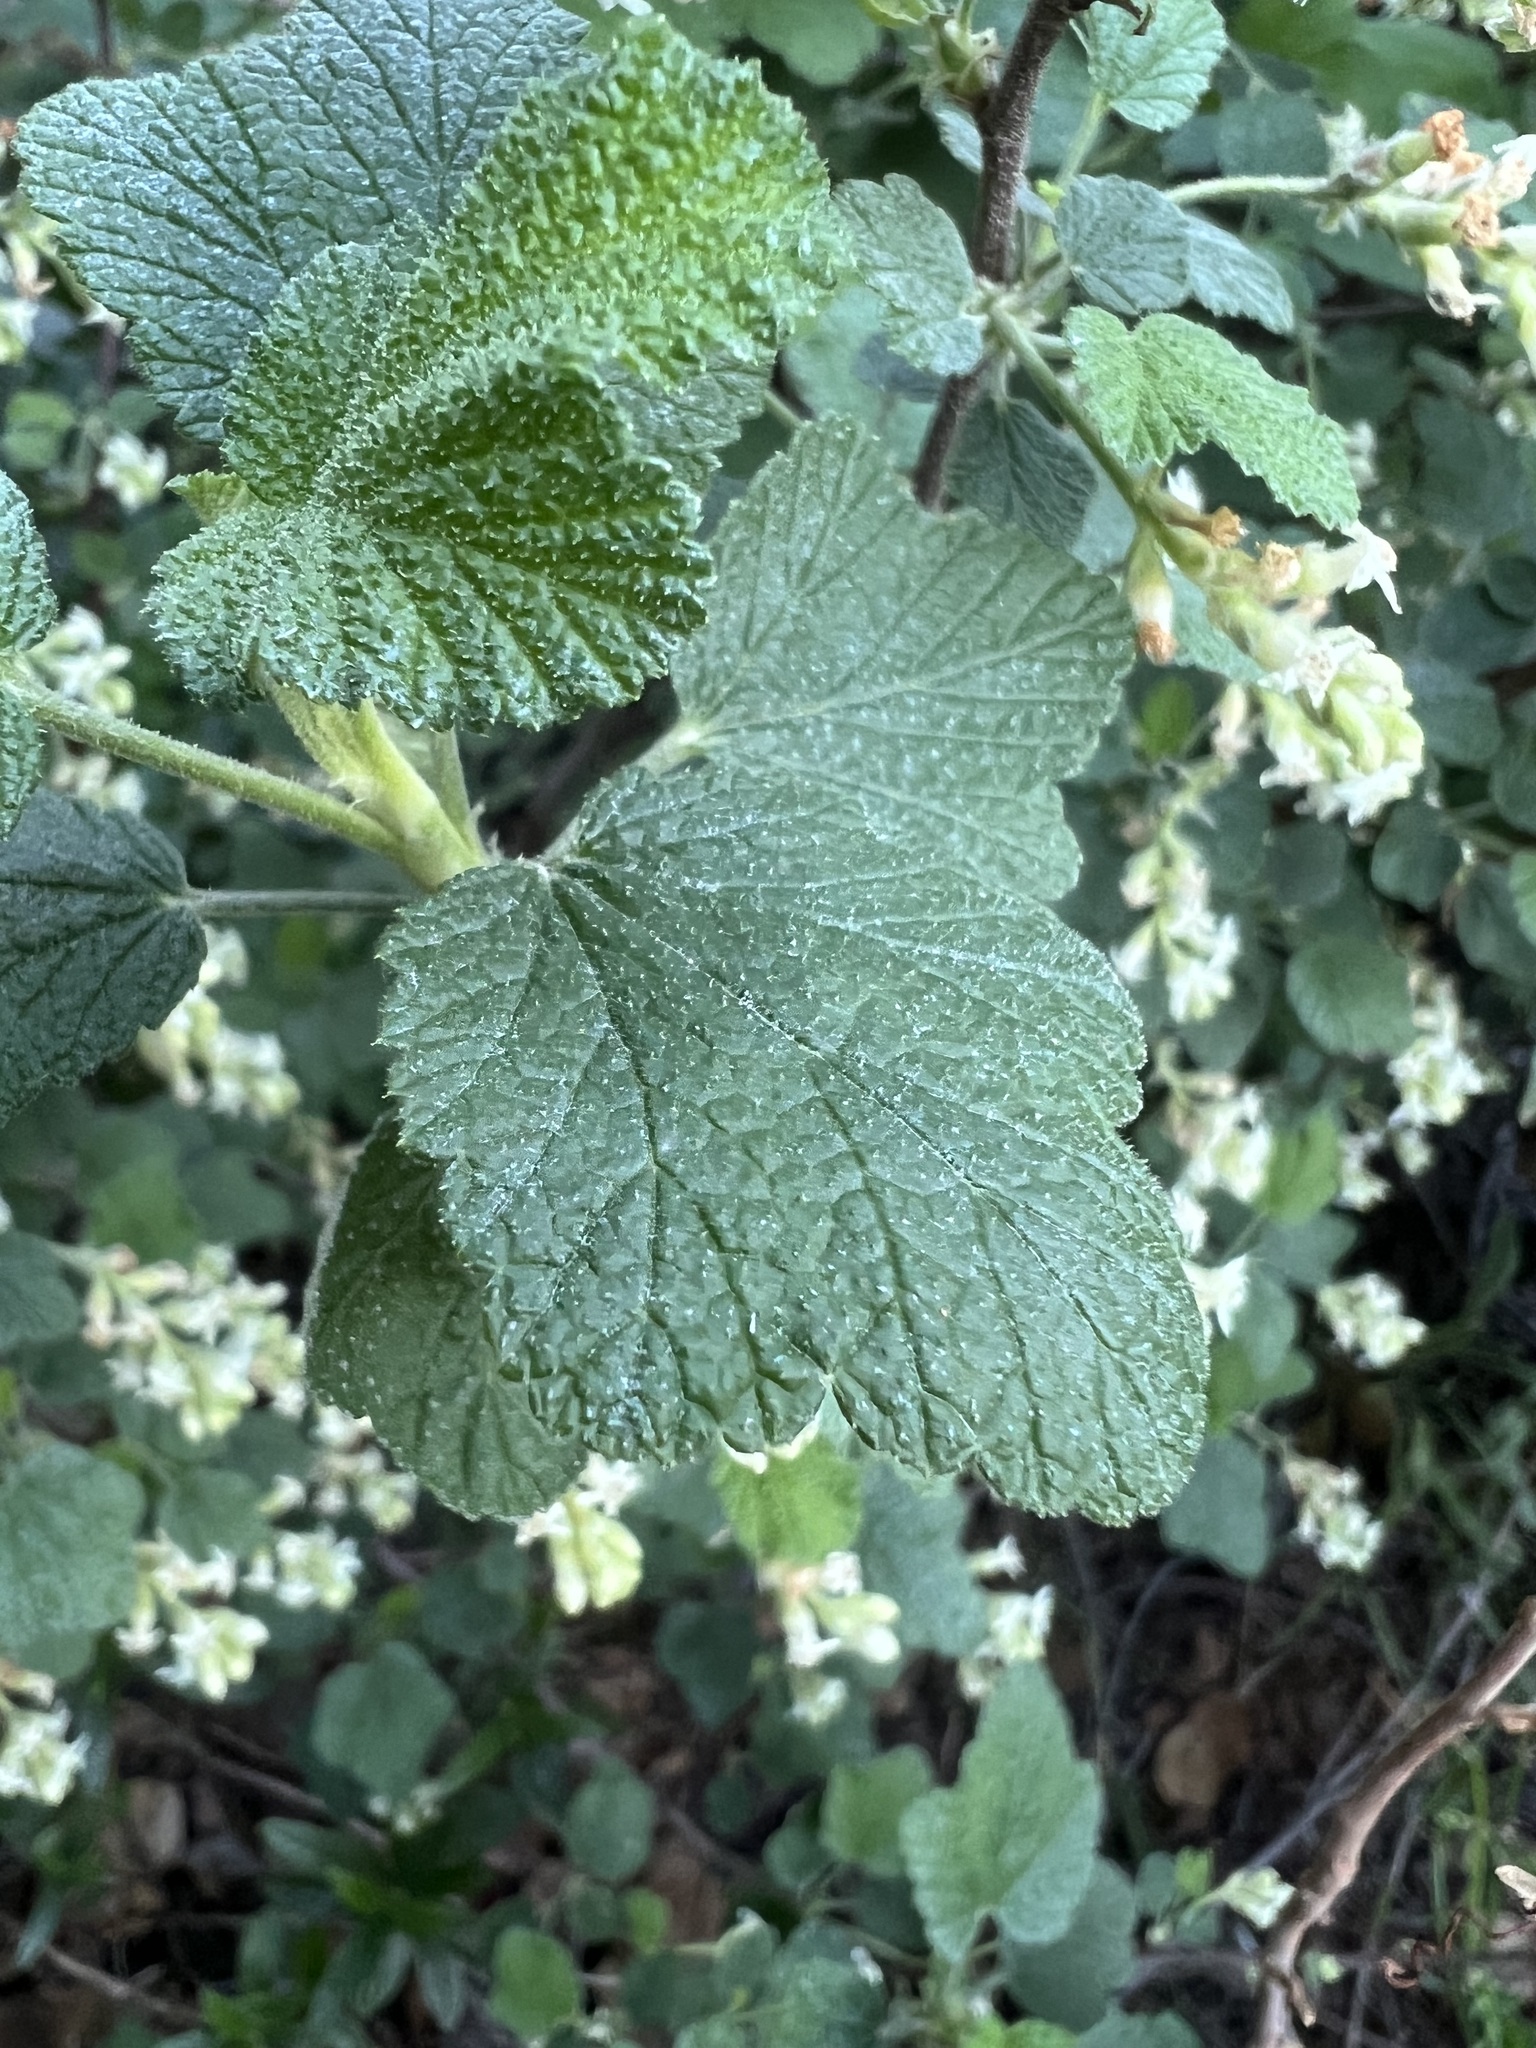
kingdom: Plantae
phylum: Tracheophyta
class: Magnoliopsida
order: Saxifragales
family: Grossulariaceae
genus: Ribes
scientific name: Ribes indecorum
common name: White-flower currant
